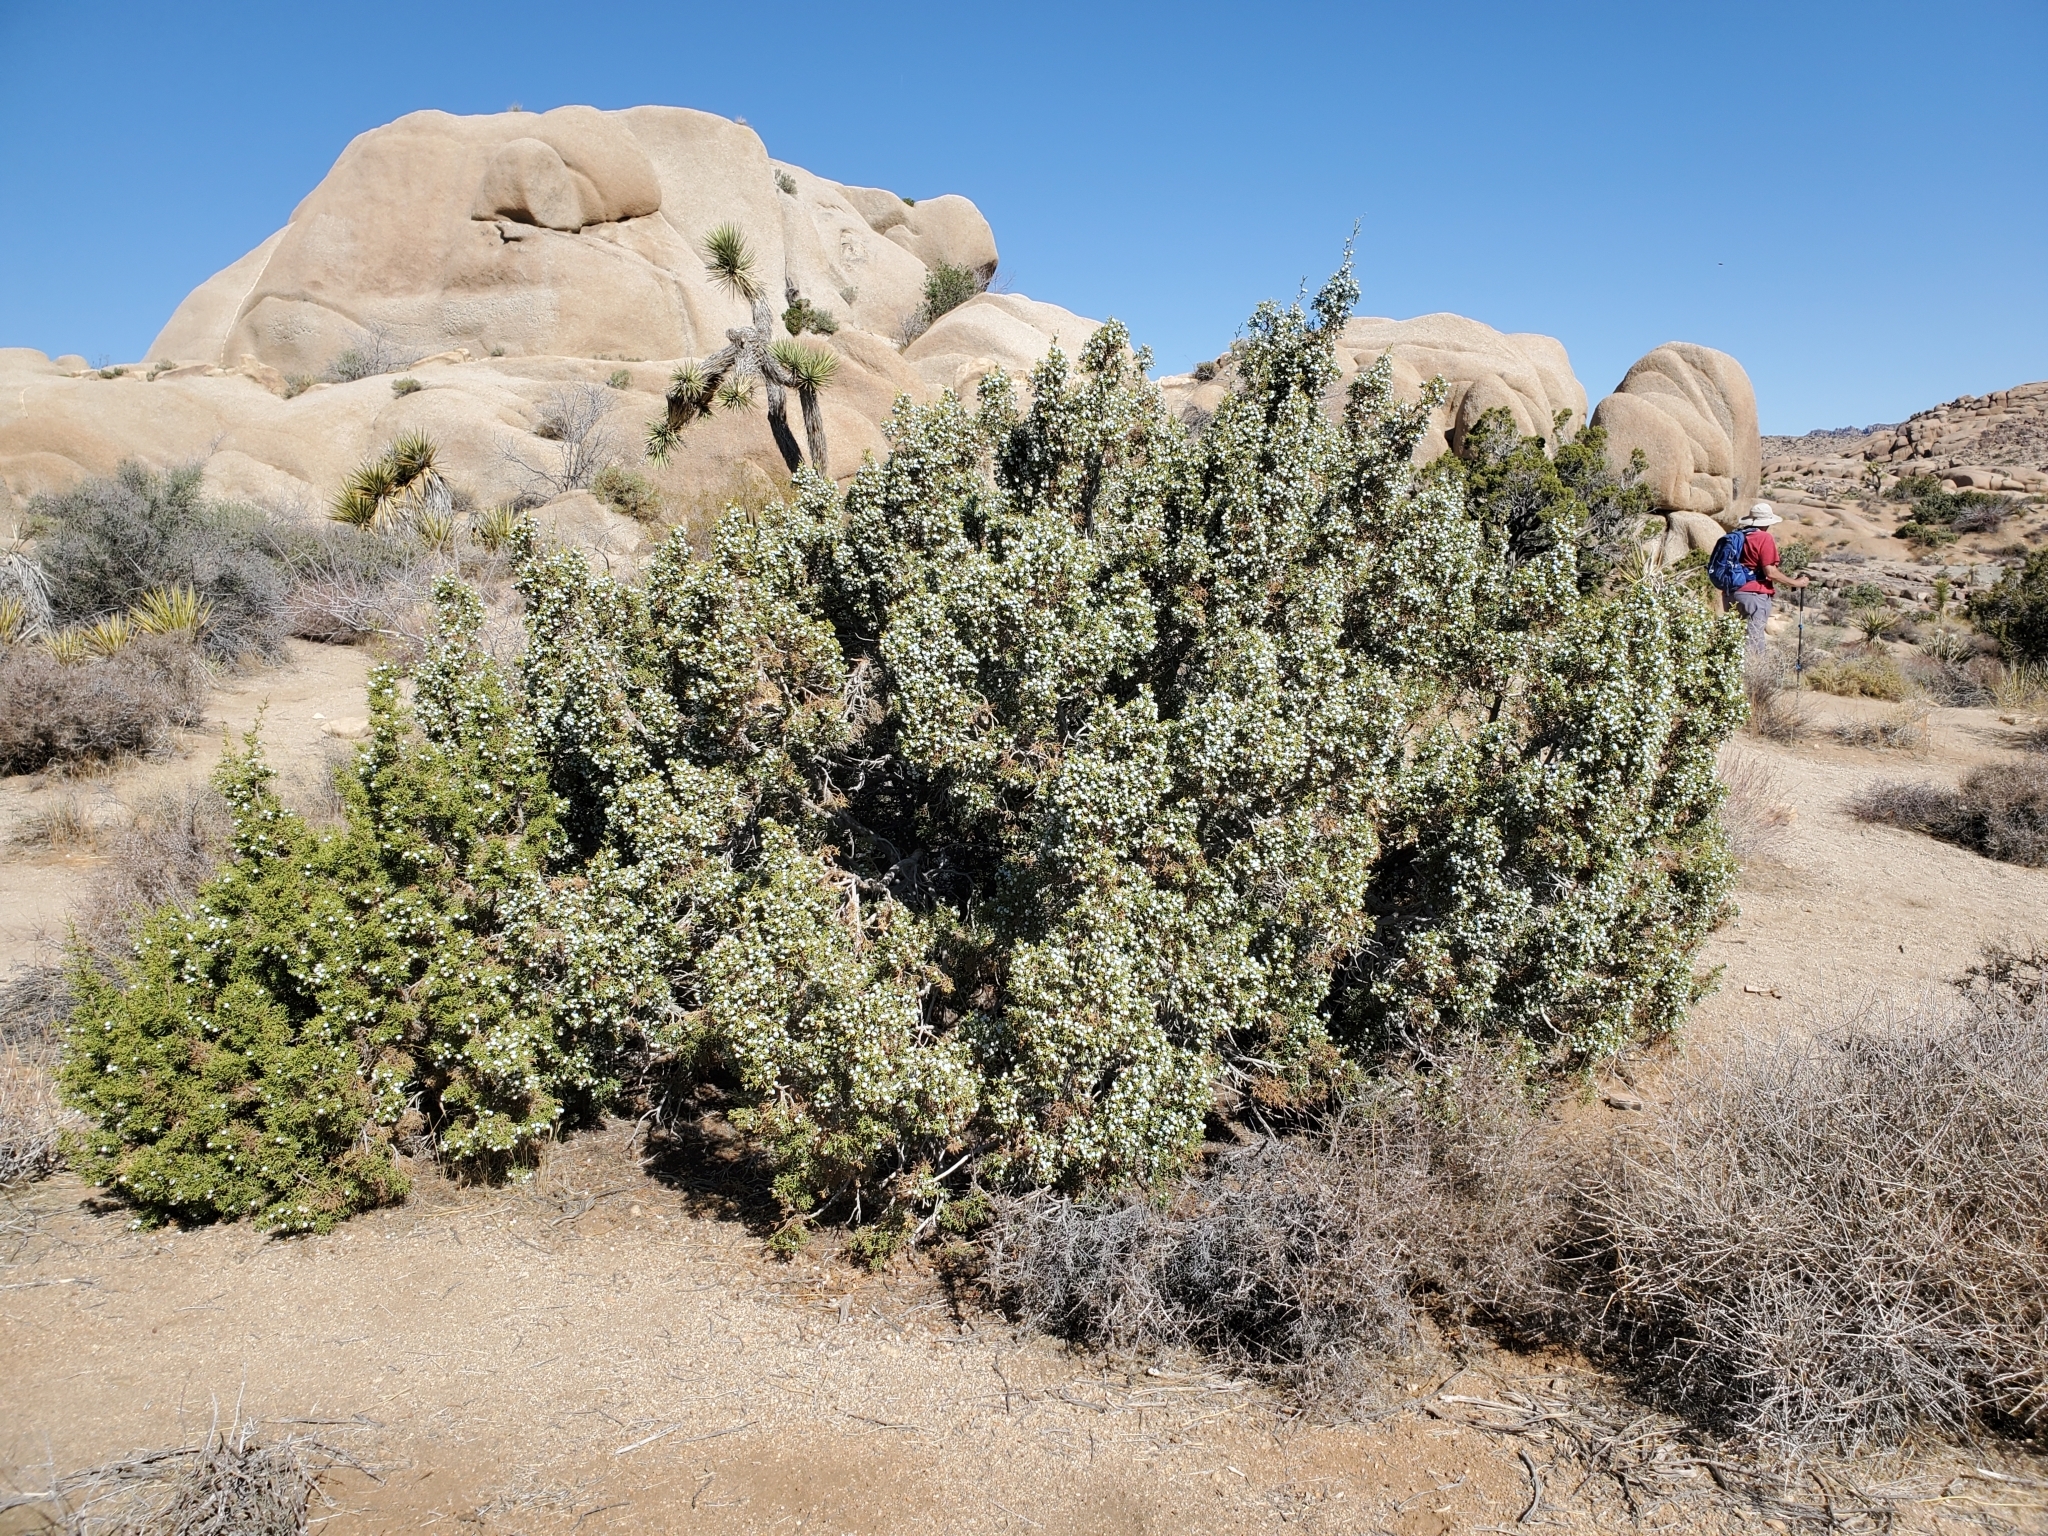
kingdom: Plantae
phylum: Tracheophyta
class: Pinopsida
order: Pinales
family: Cupressaceae
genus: Juniperus
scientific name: Juniperus californica
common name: California juniper
